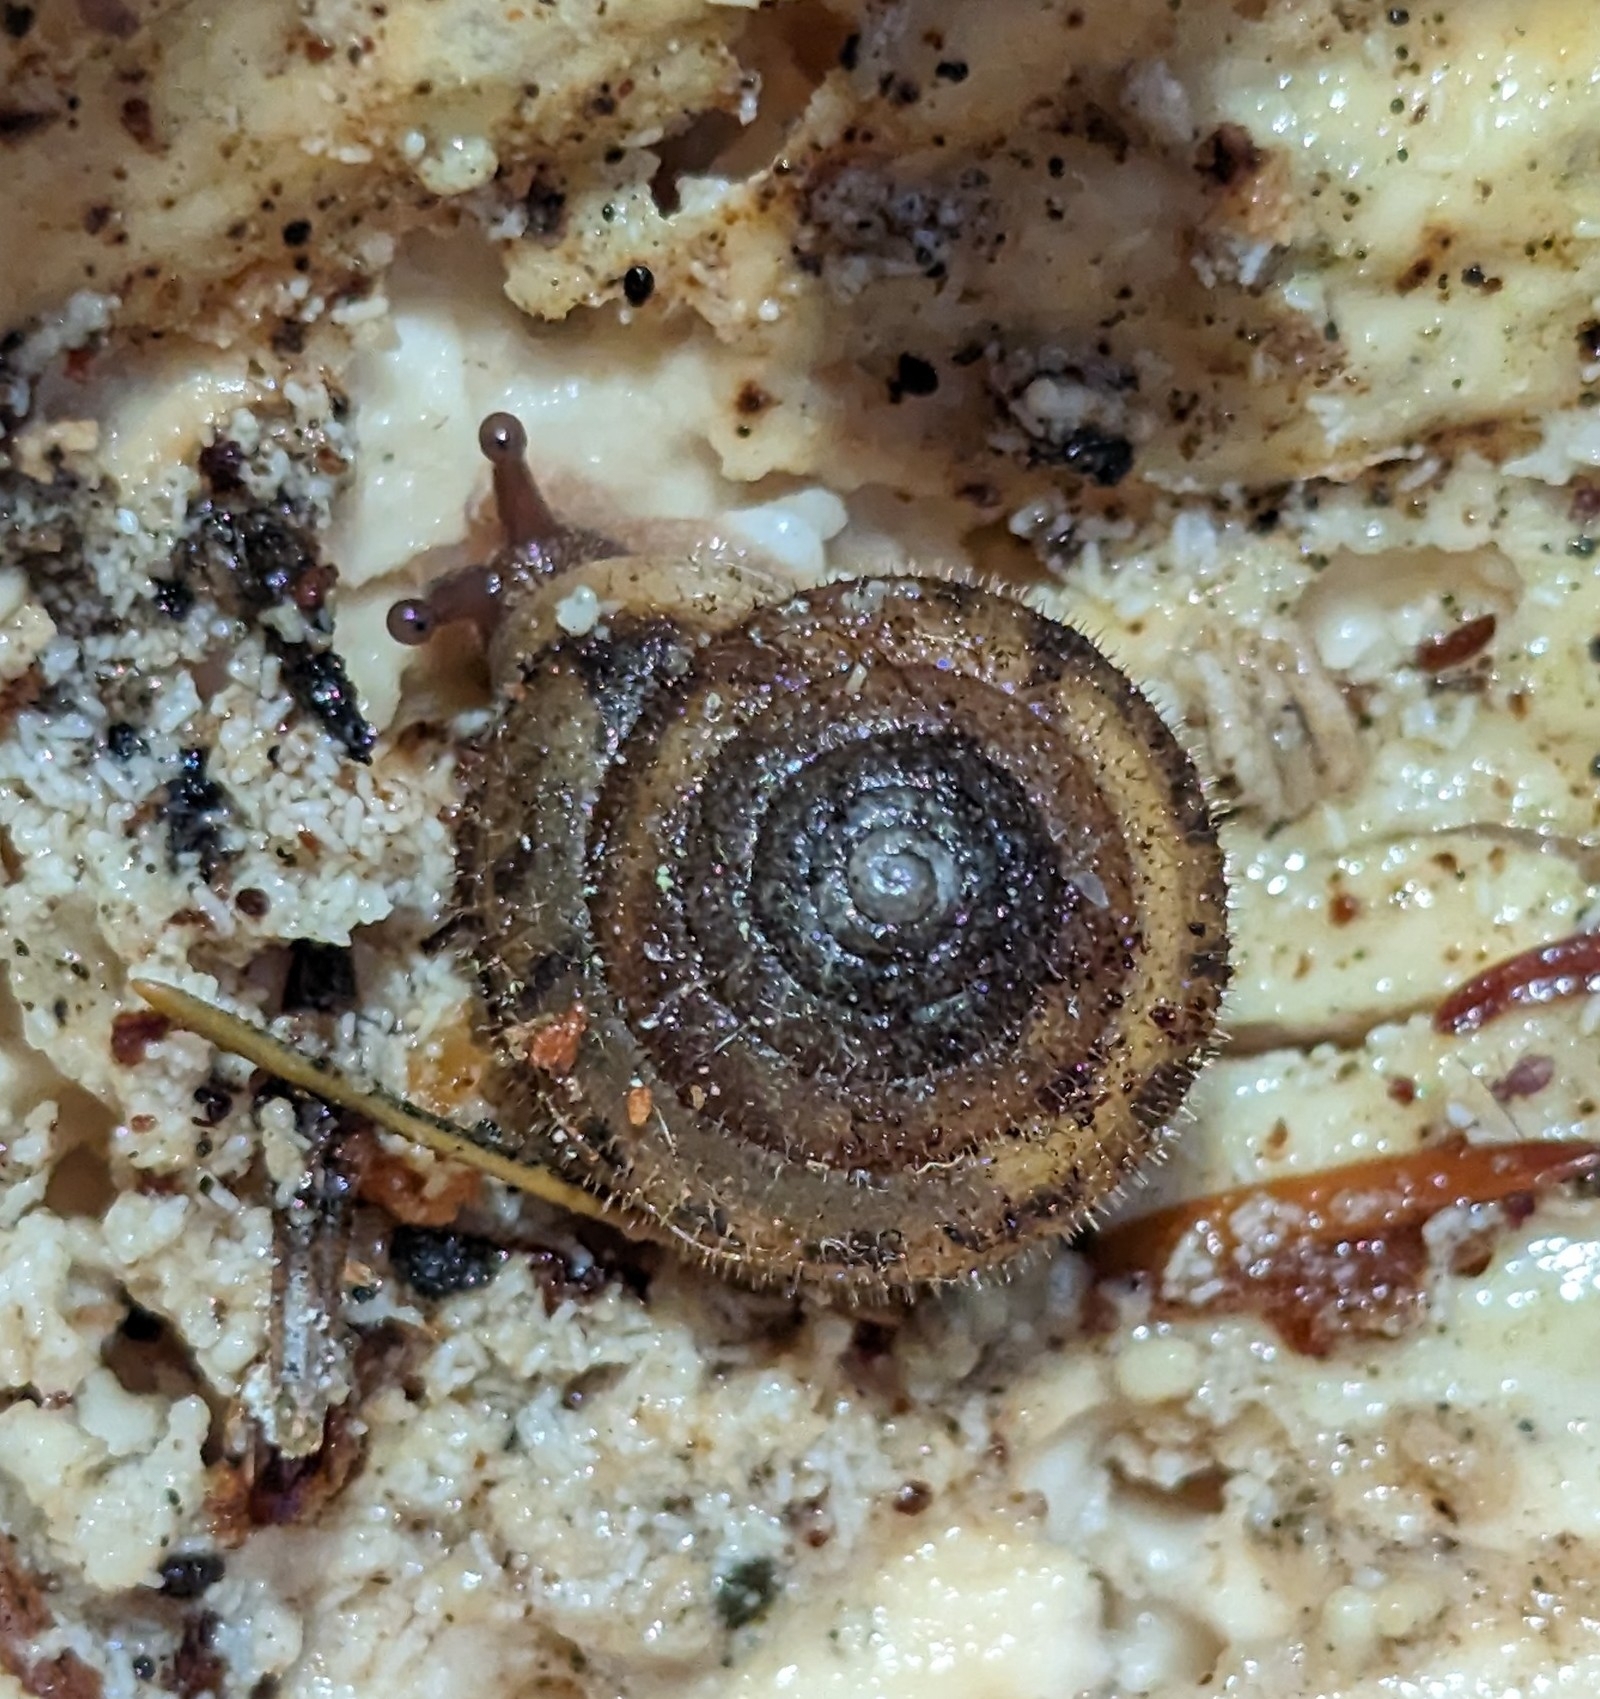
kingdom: Animalia
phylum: Mollusca
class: Gastropoda
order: Stylommatophora
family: Polygyridae
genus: Vespericola
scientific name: Vespericola columbianus
